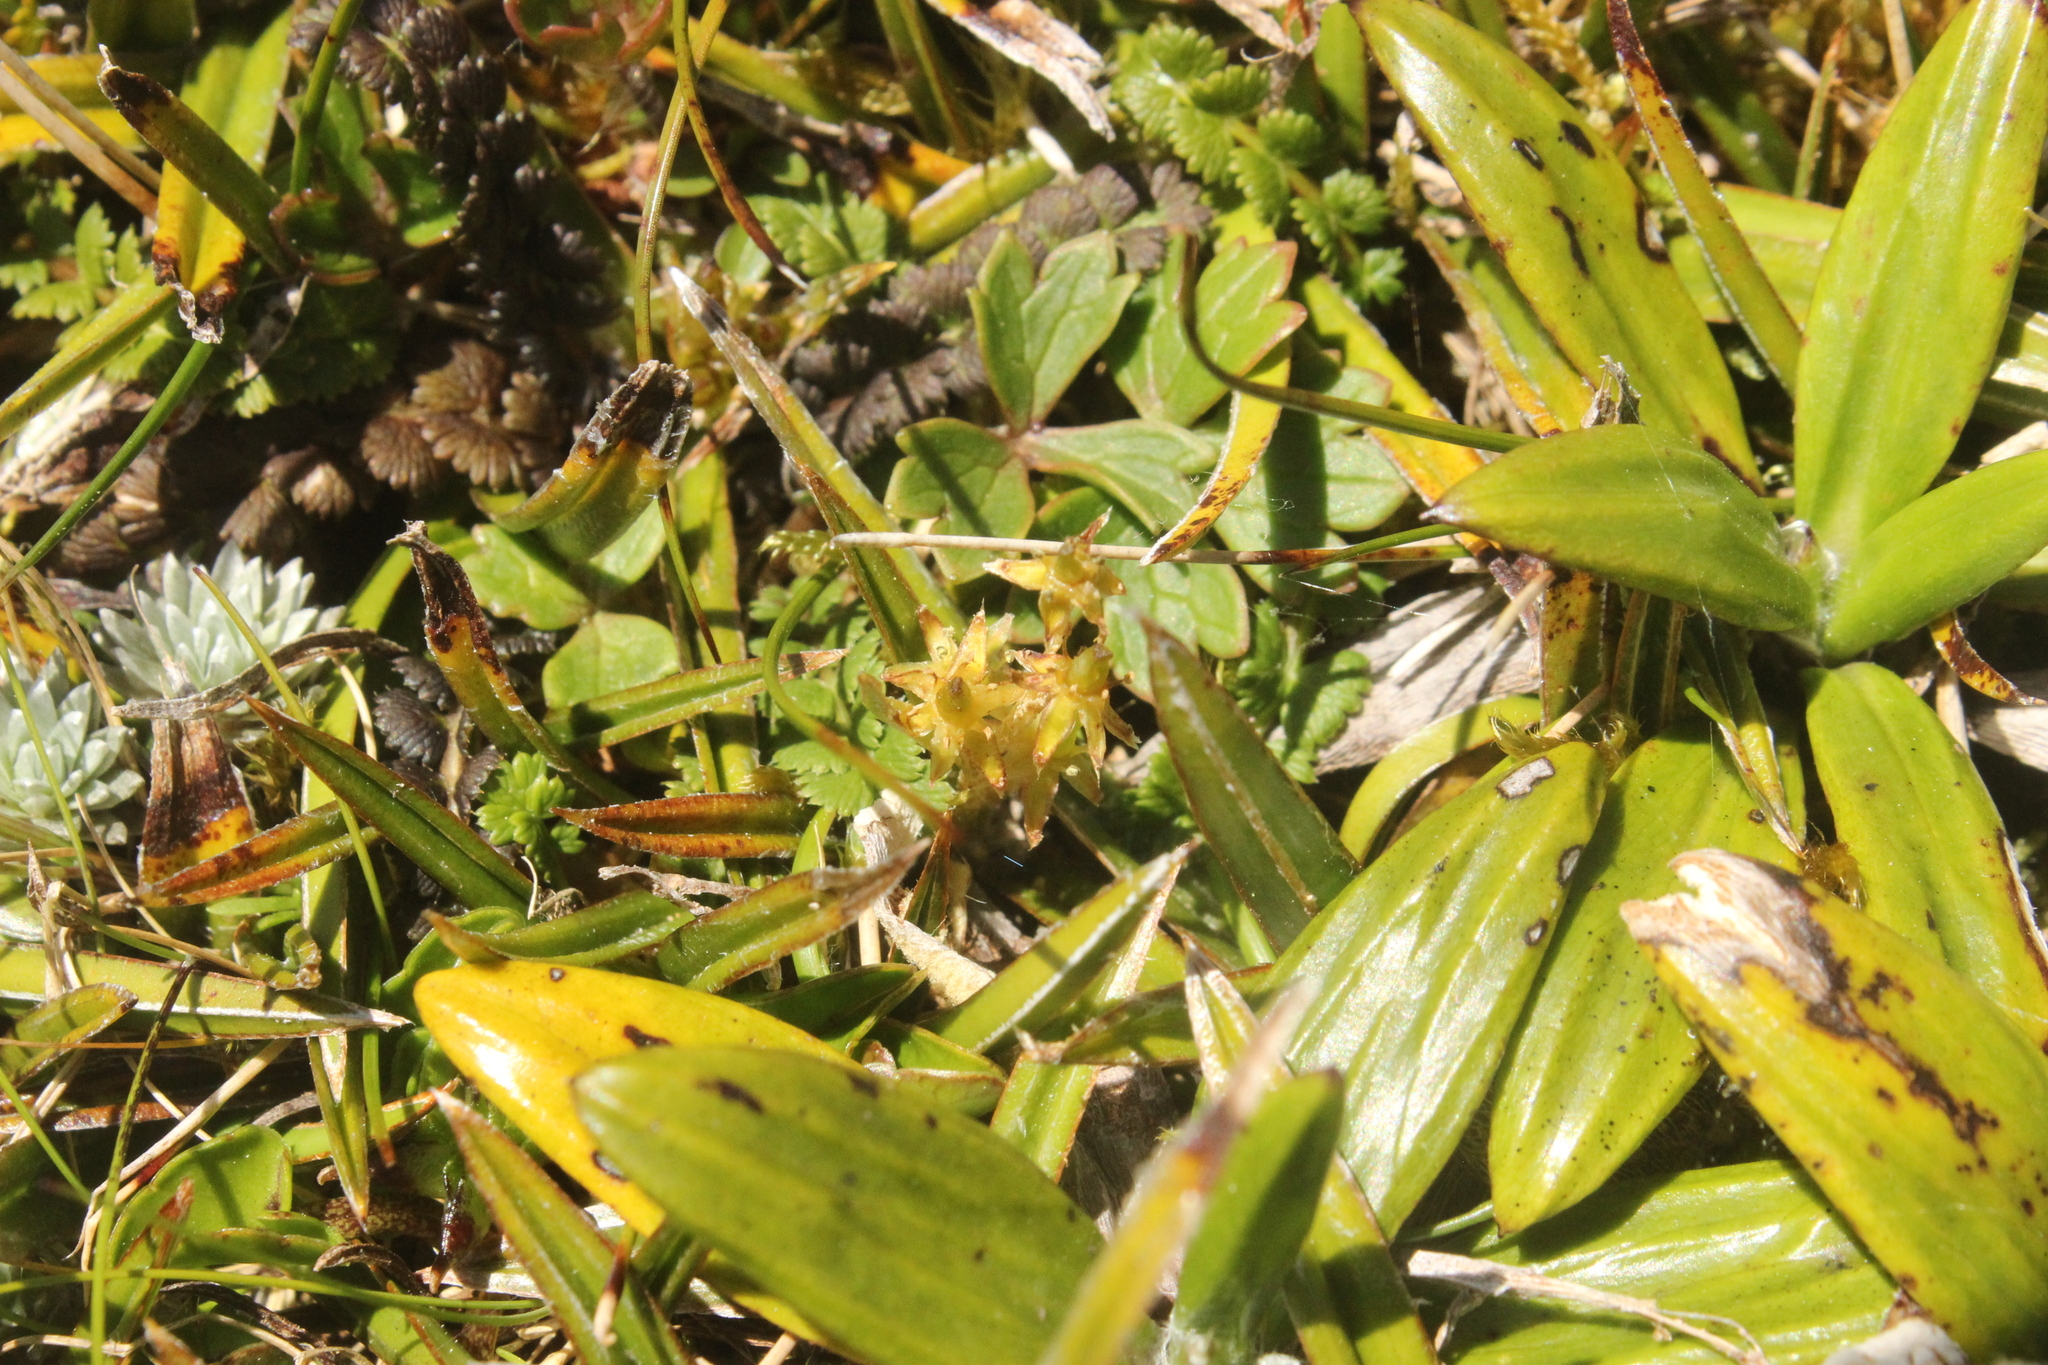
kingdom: Plantae
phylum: Tracheophyta
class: Liliopsida
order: Asparagales
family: Asteliaceae
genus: Astelia
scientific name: Astelia linearis
